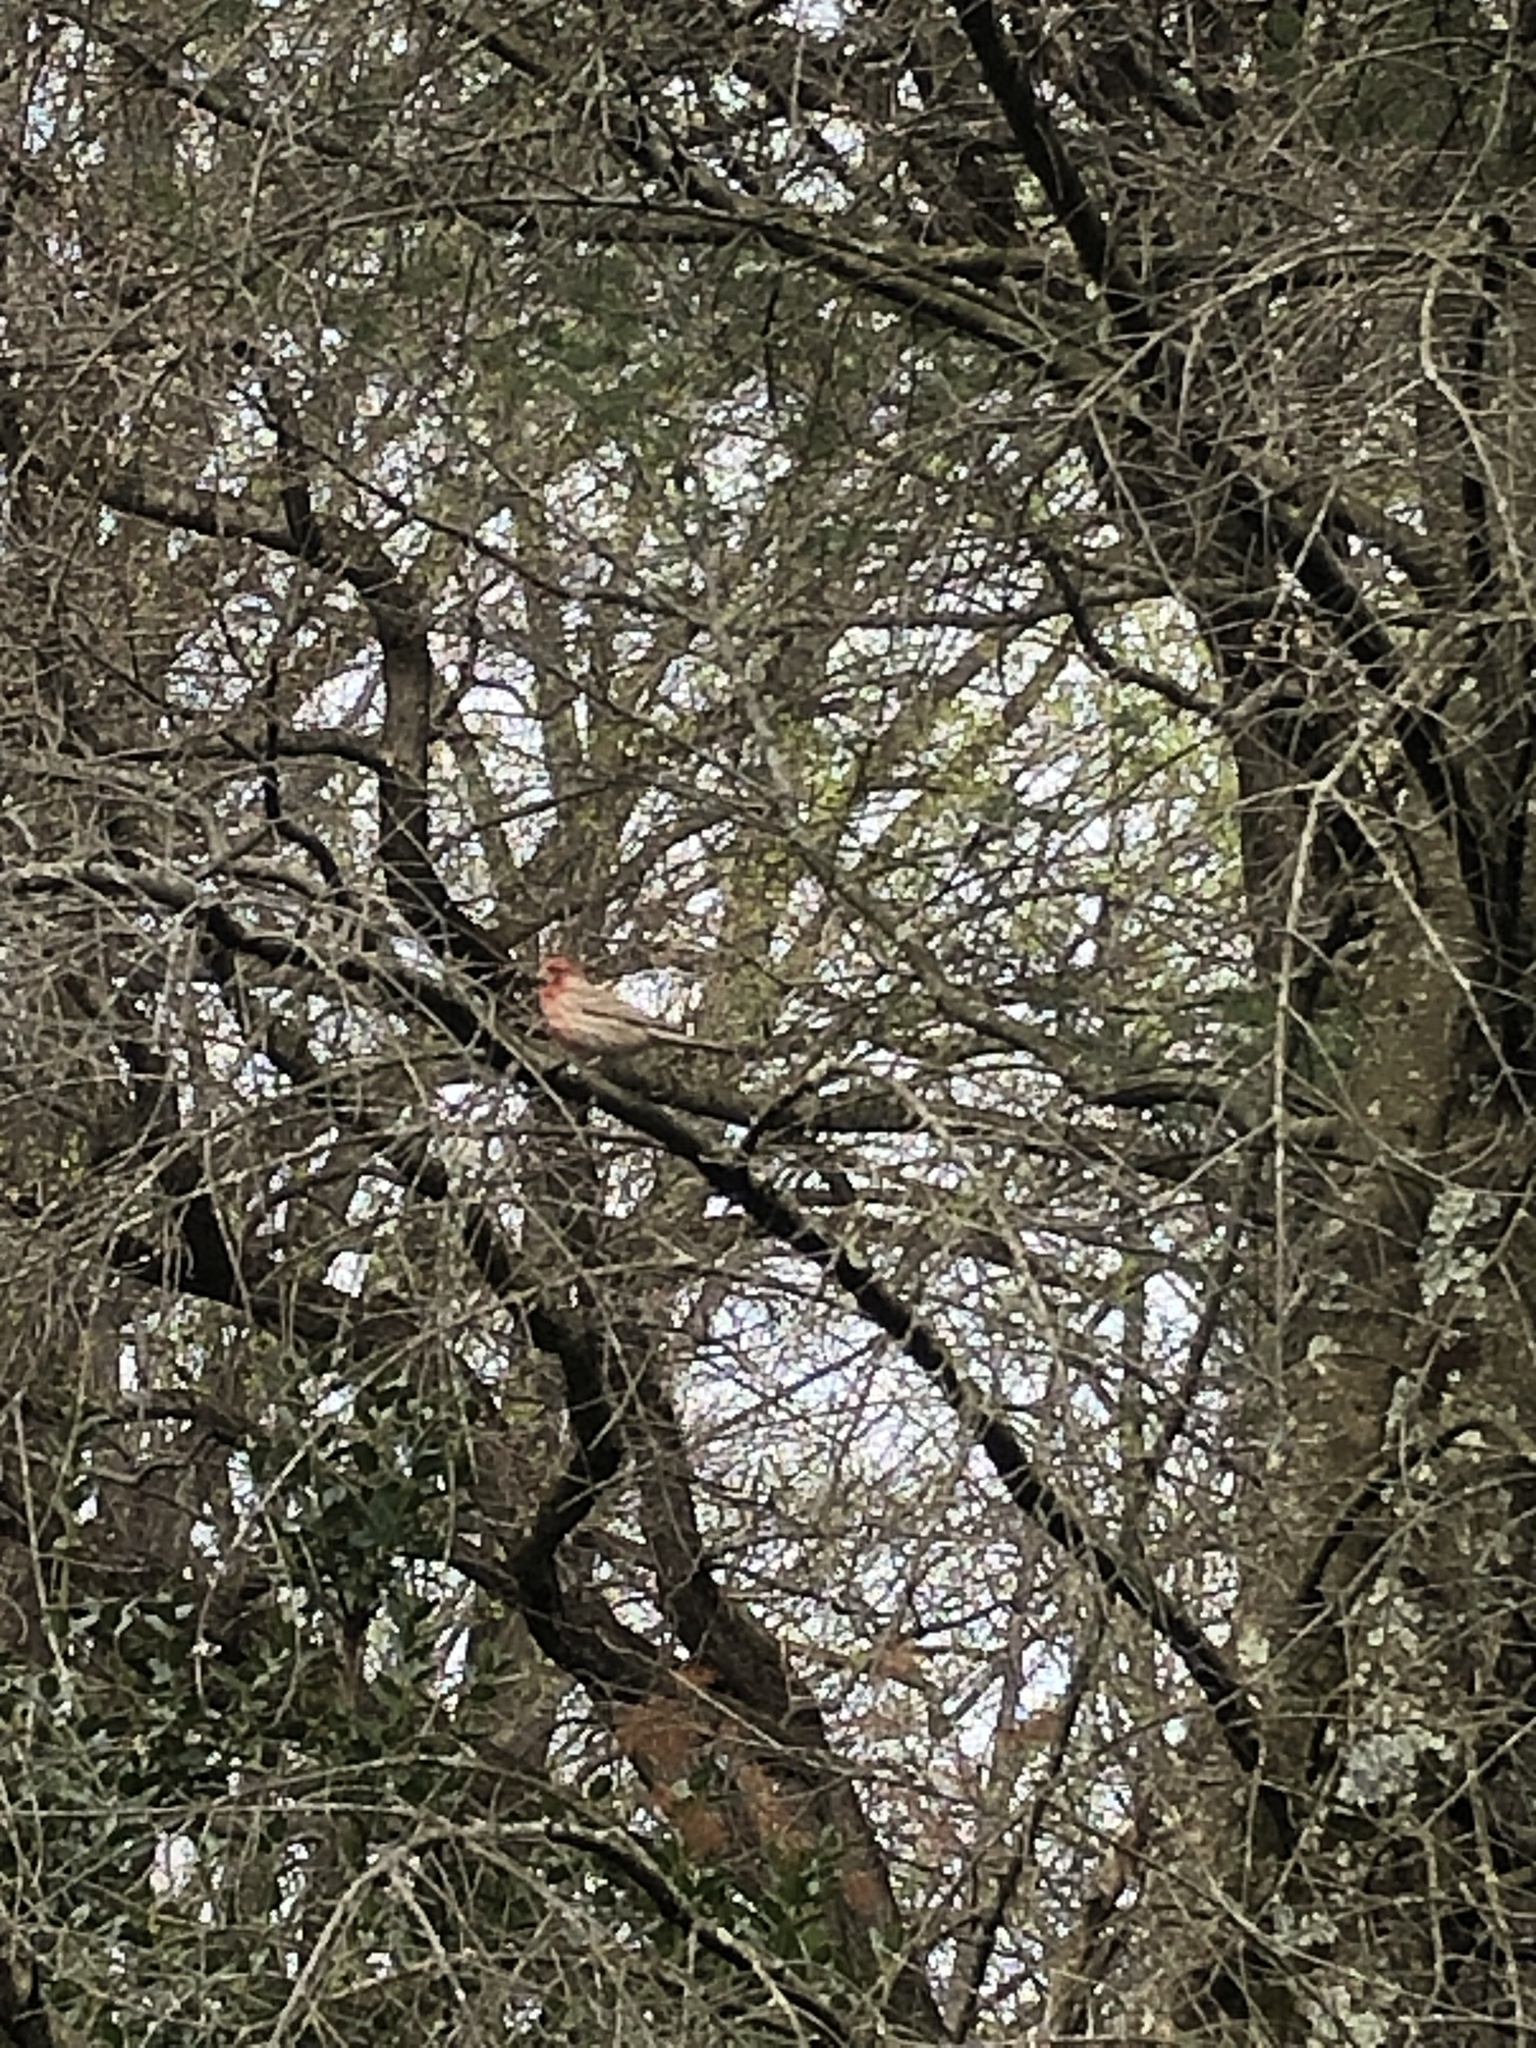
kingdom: Animalia
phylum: Chordata
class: Aves
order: Passeriformes
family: Fringillidae
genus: Haemorhous
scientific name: Haemorhous mexicanus
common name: House finch
